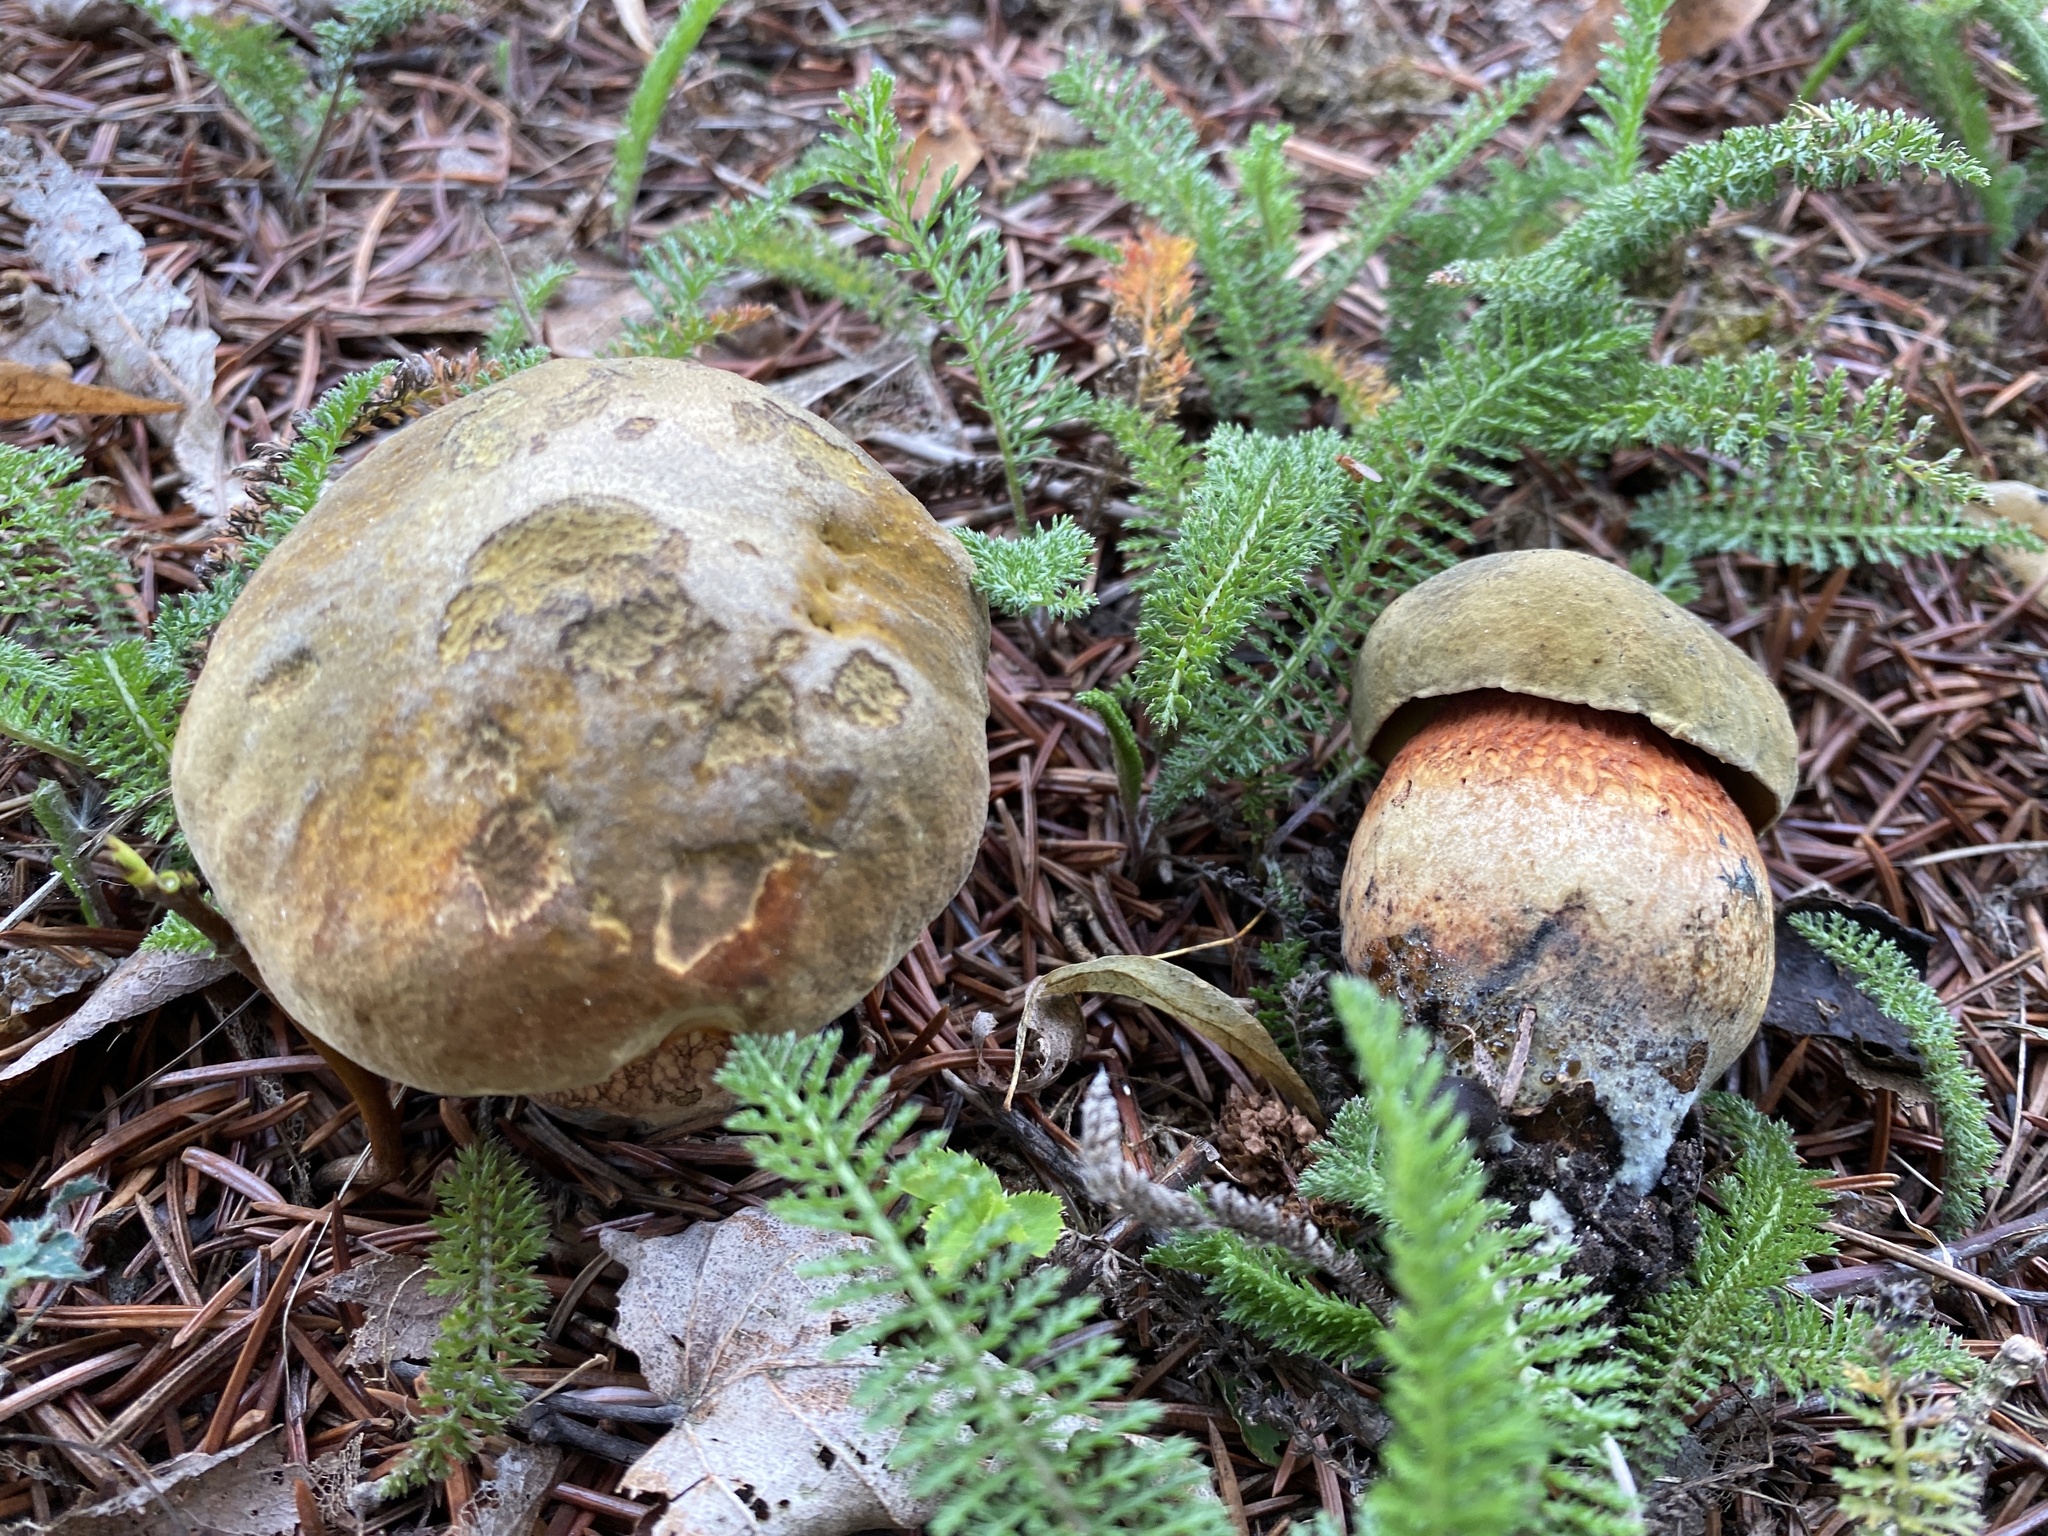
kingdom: Fungi
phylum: Basidiomycota
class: Agaricomycetes
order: Boletales
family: Boletaceae
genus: Suillellus
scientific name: Suillellus luridus
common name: Lurid bolete
